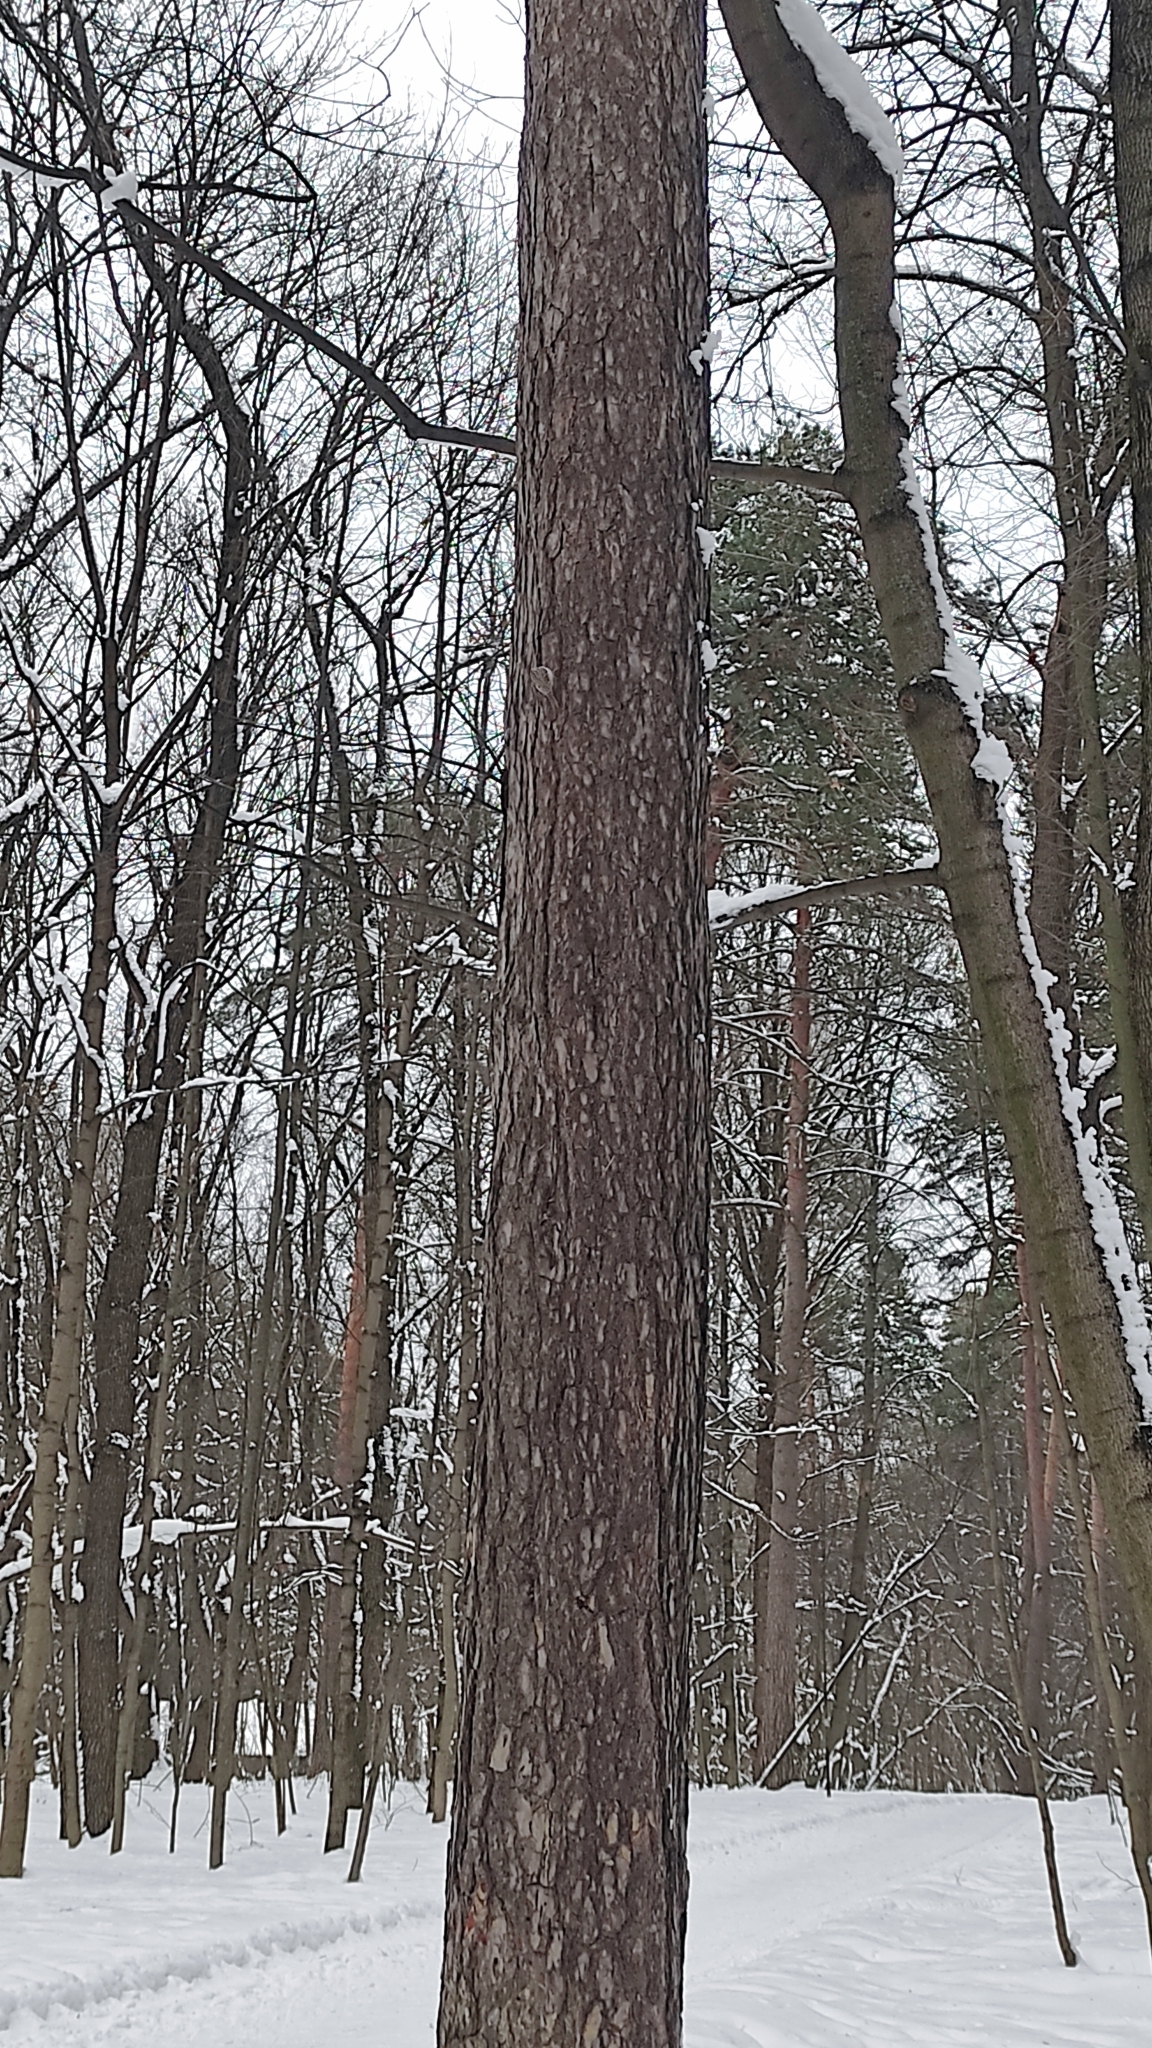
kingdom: Animalia
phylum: Chordata
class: Aves
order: Passeriformes
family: Certhiidae
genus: Certhia
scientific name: Certhia familiaris
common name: Eurasian treecreeper
